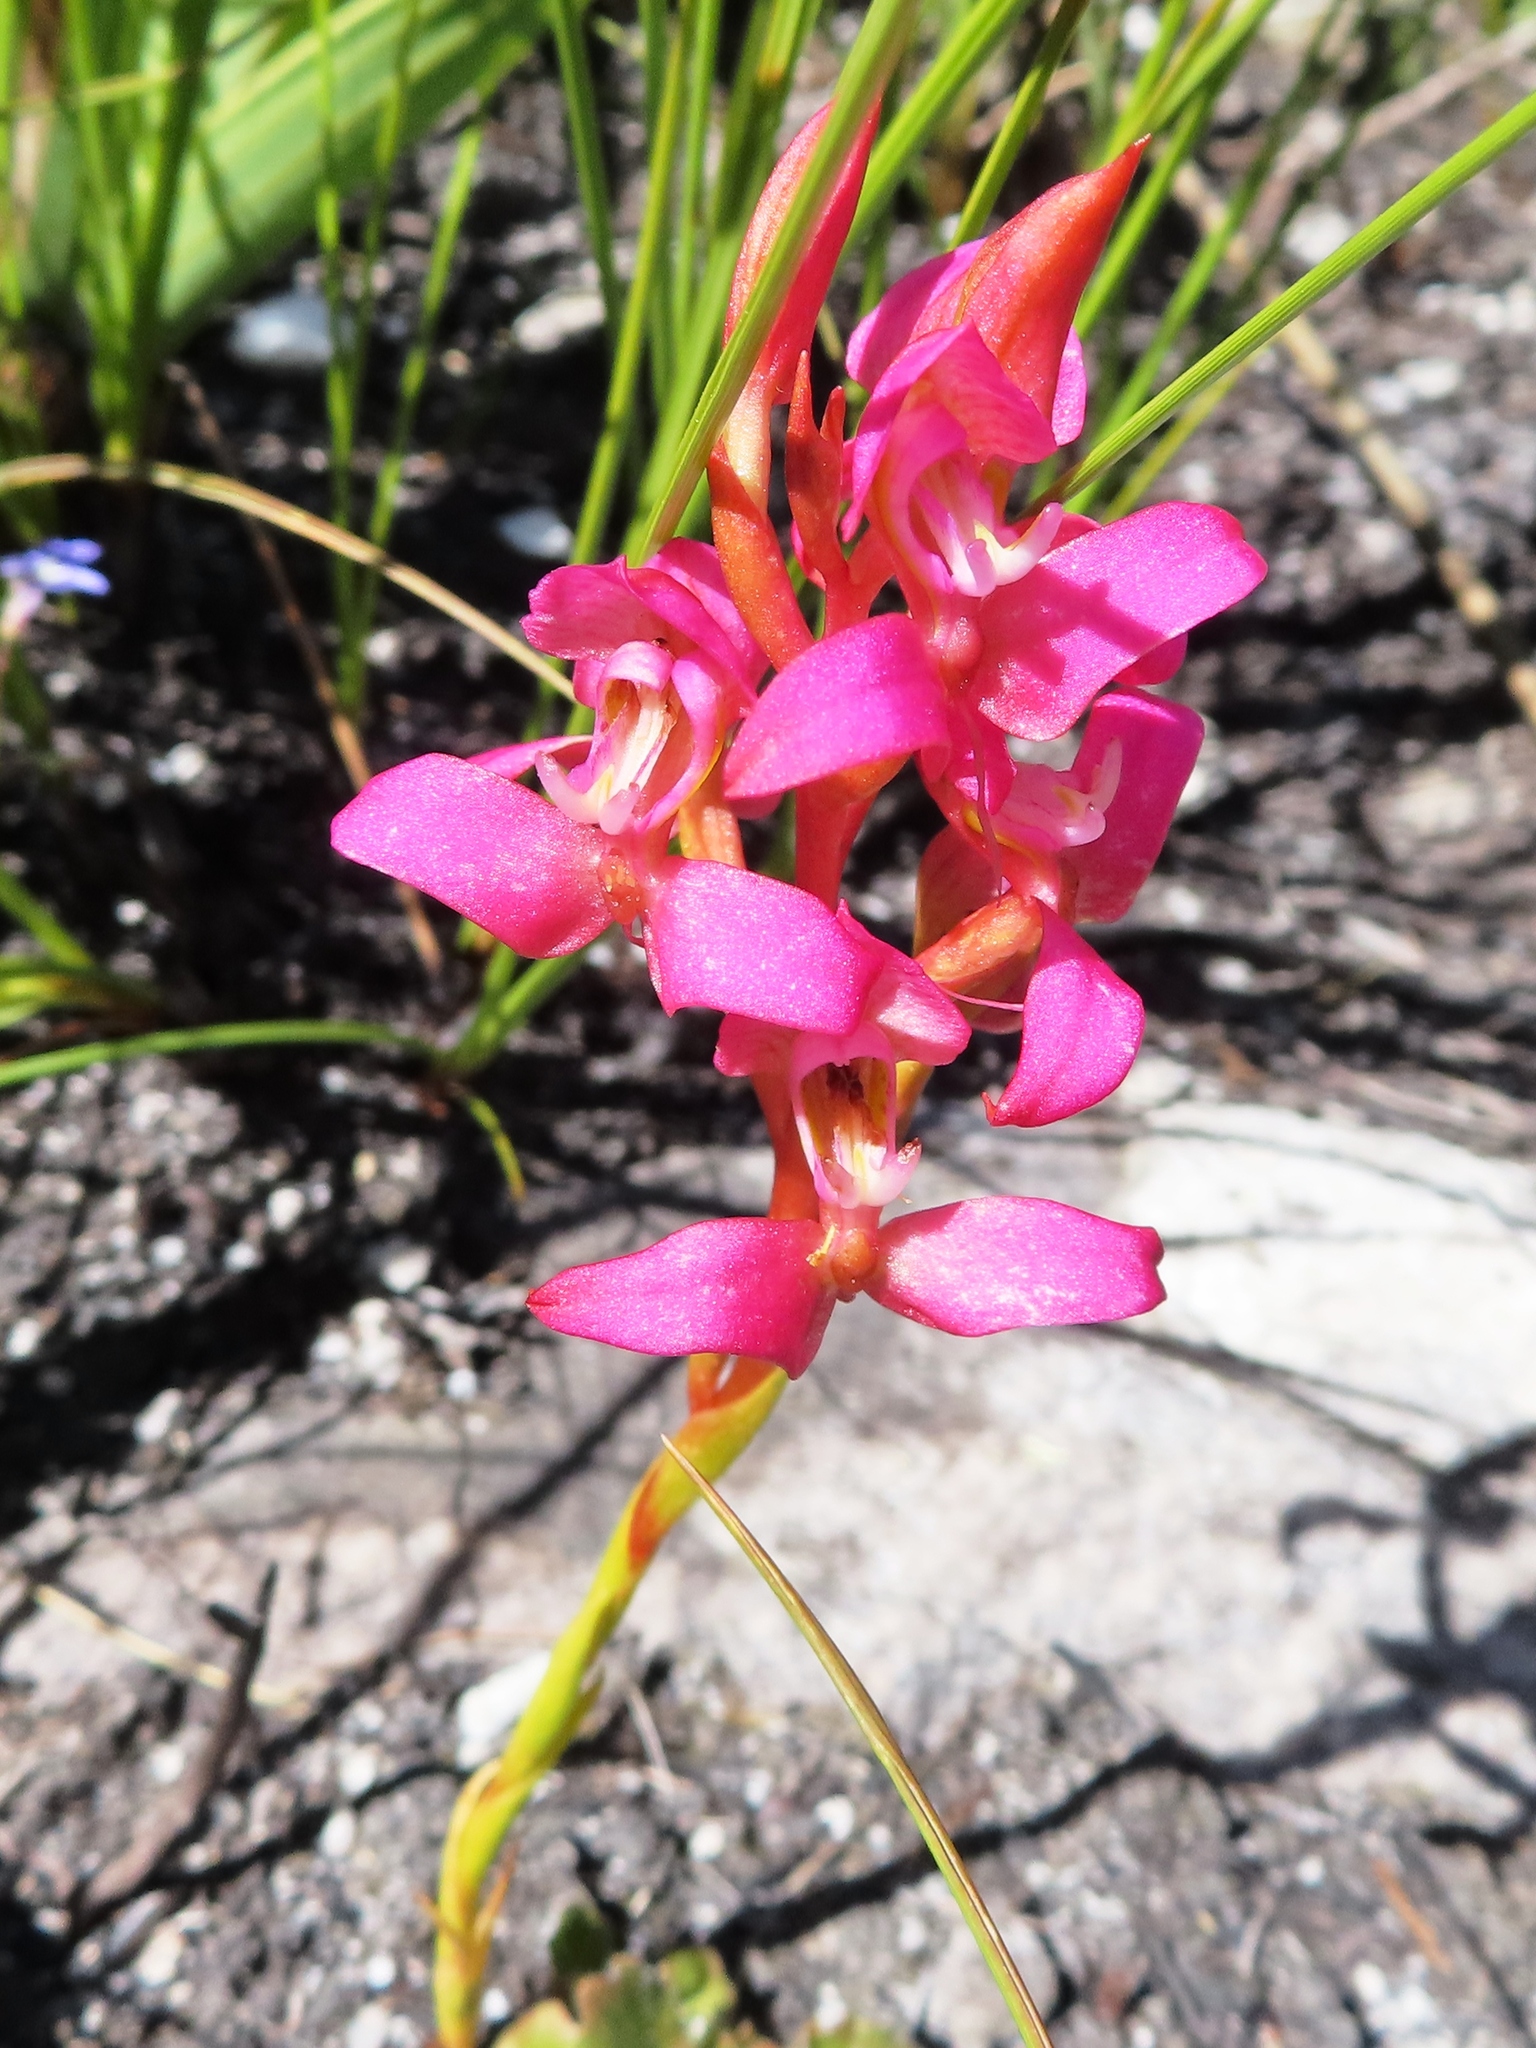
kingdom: Plantae
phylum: Tracheophyta
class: Liliopsida
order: Asparagales
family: Orchidaceae
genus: Disa
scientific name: Disa filicornis
